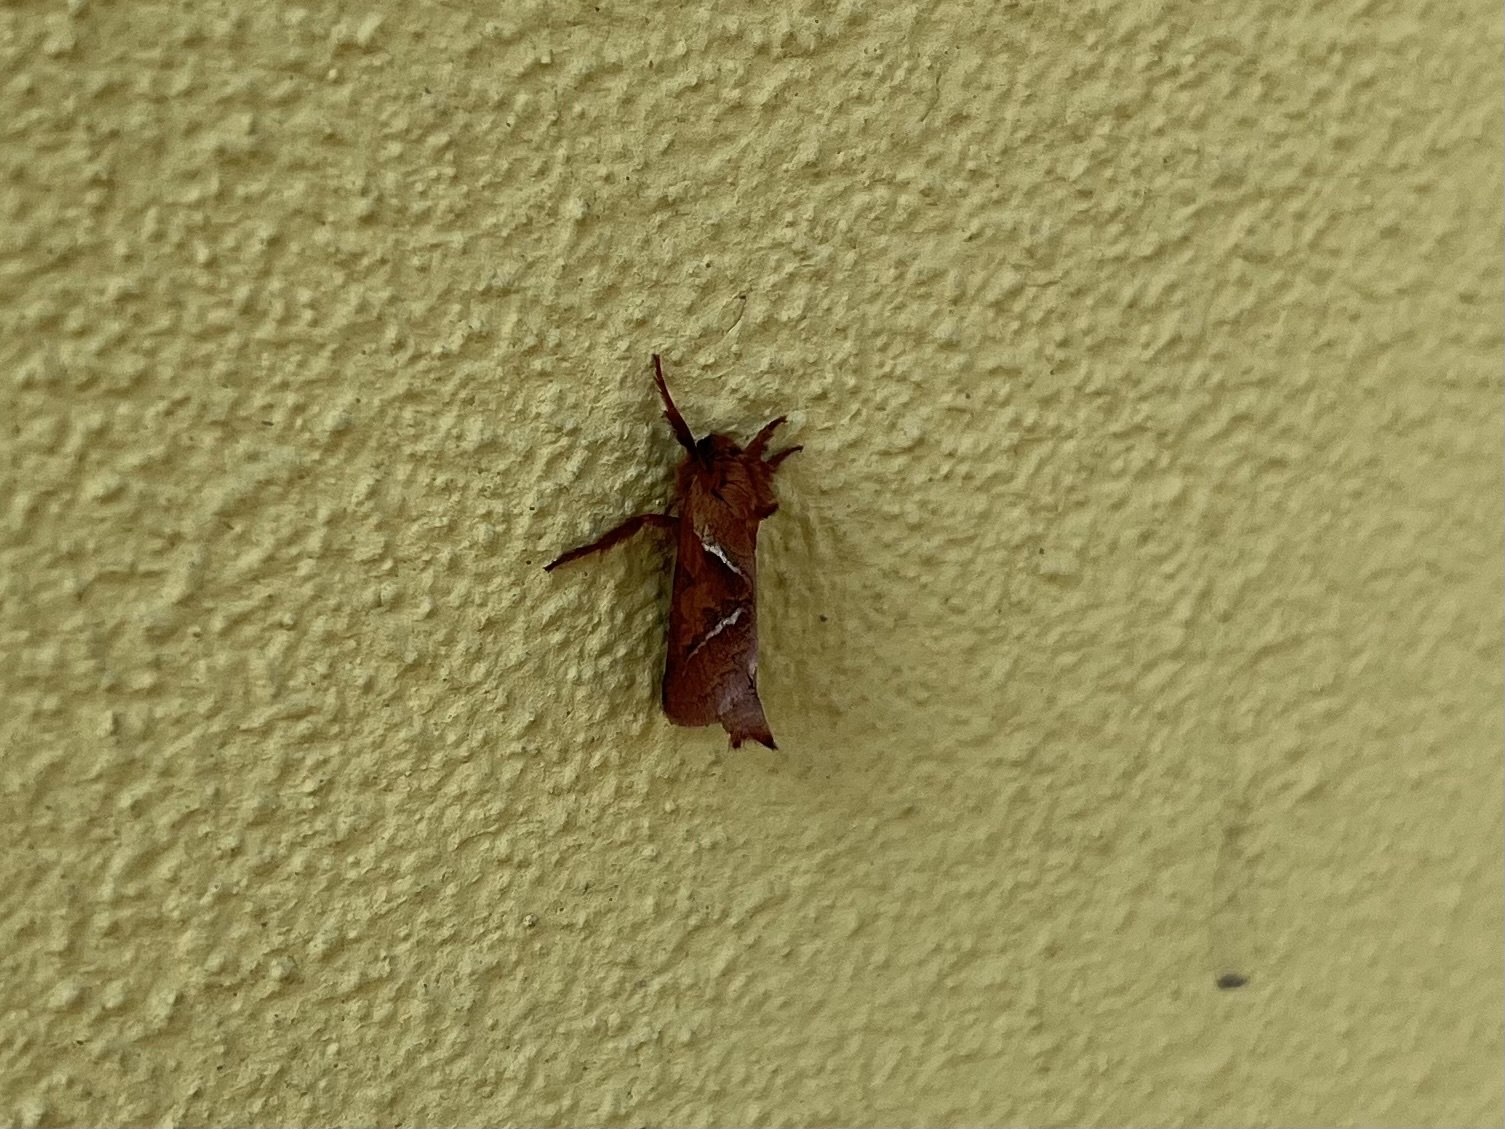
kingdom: Animalia
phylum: Arthropoda
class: Insecta
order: Lepidoptera
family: Hepialidae
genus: Triodia
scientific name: Triodia sylvina
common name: Orange swift
